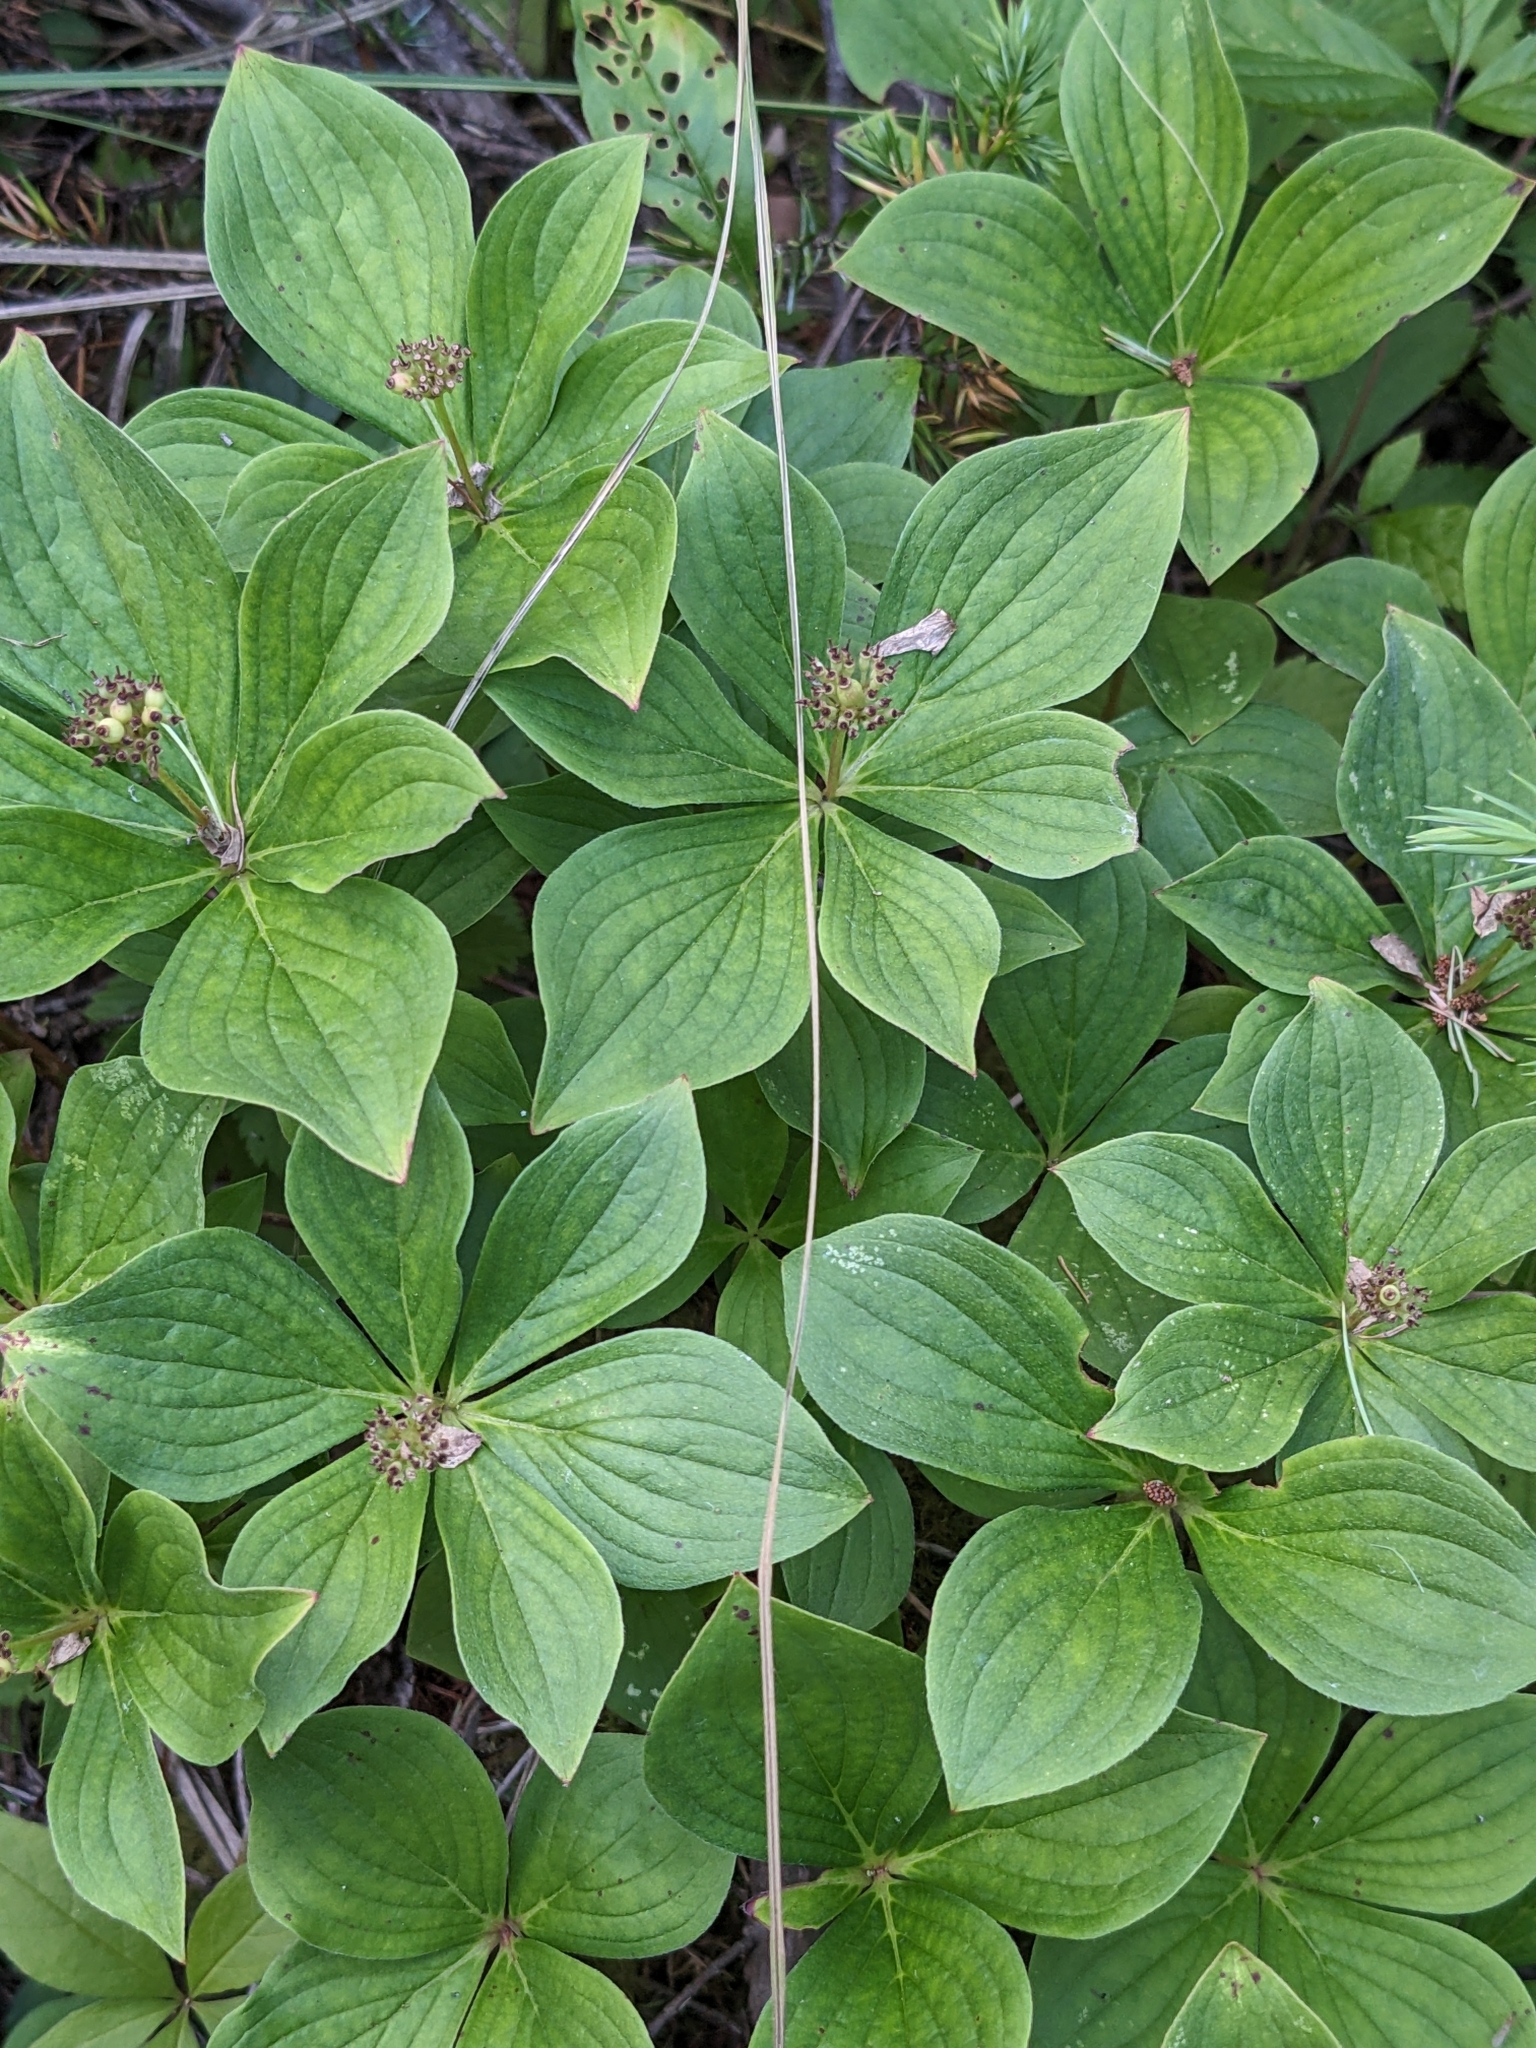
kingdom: Plantae
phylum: Tracheophyta
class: Magnoliopsida
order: Cornales
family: Cornaceae
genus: Cornus
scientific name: Cornus canadensis
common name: Creeping dogwood
